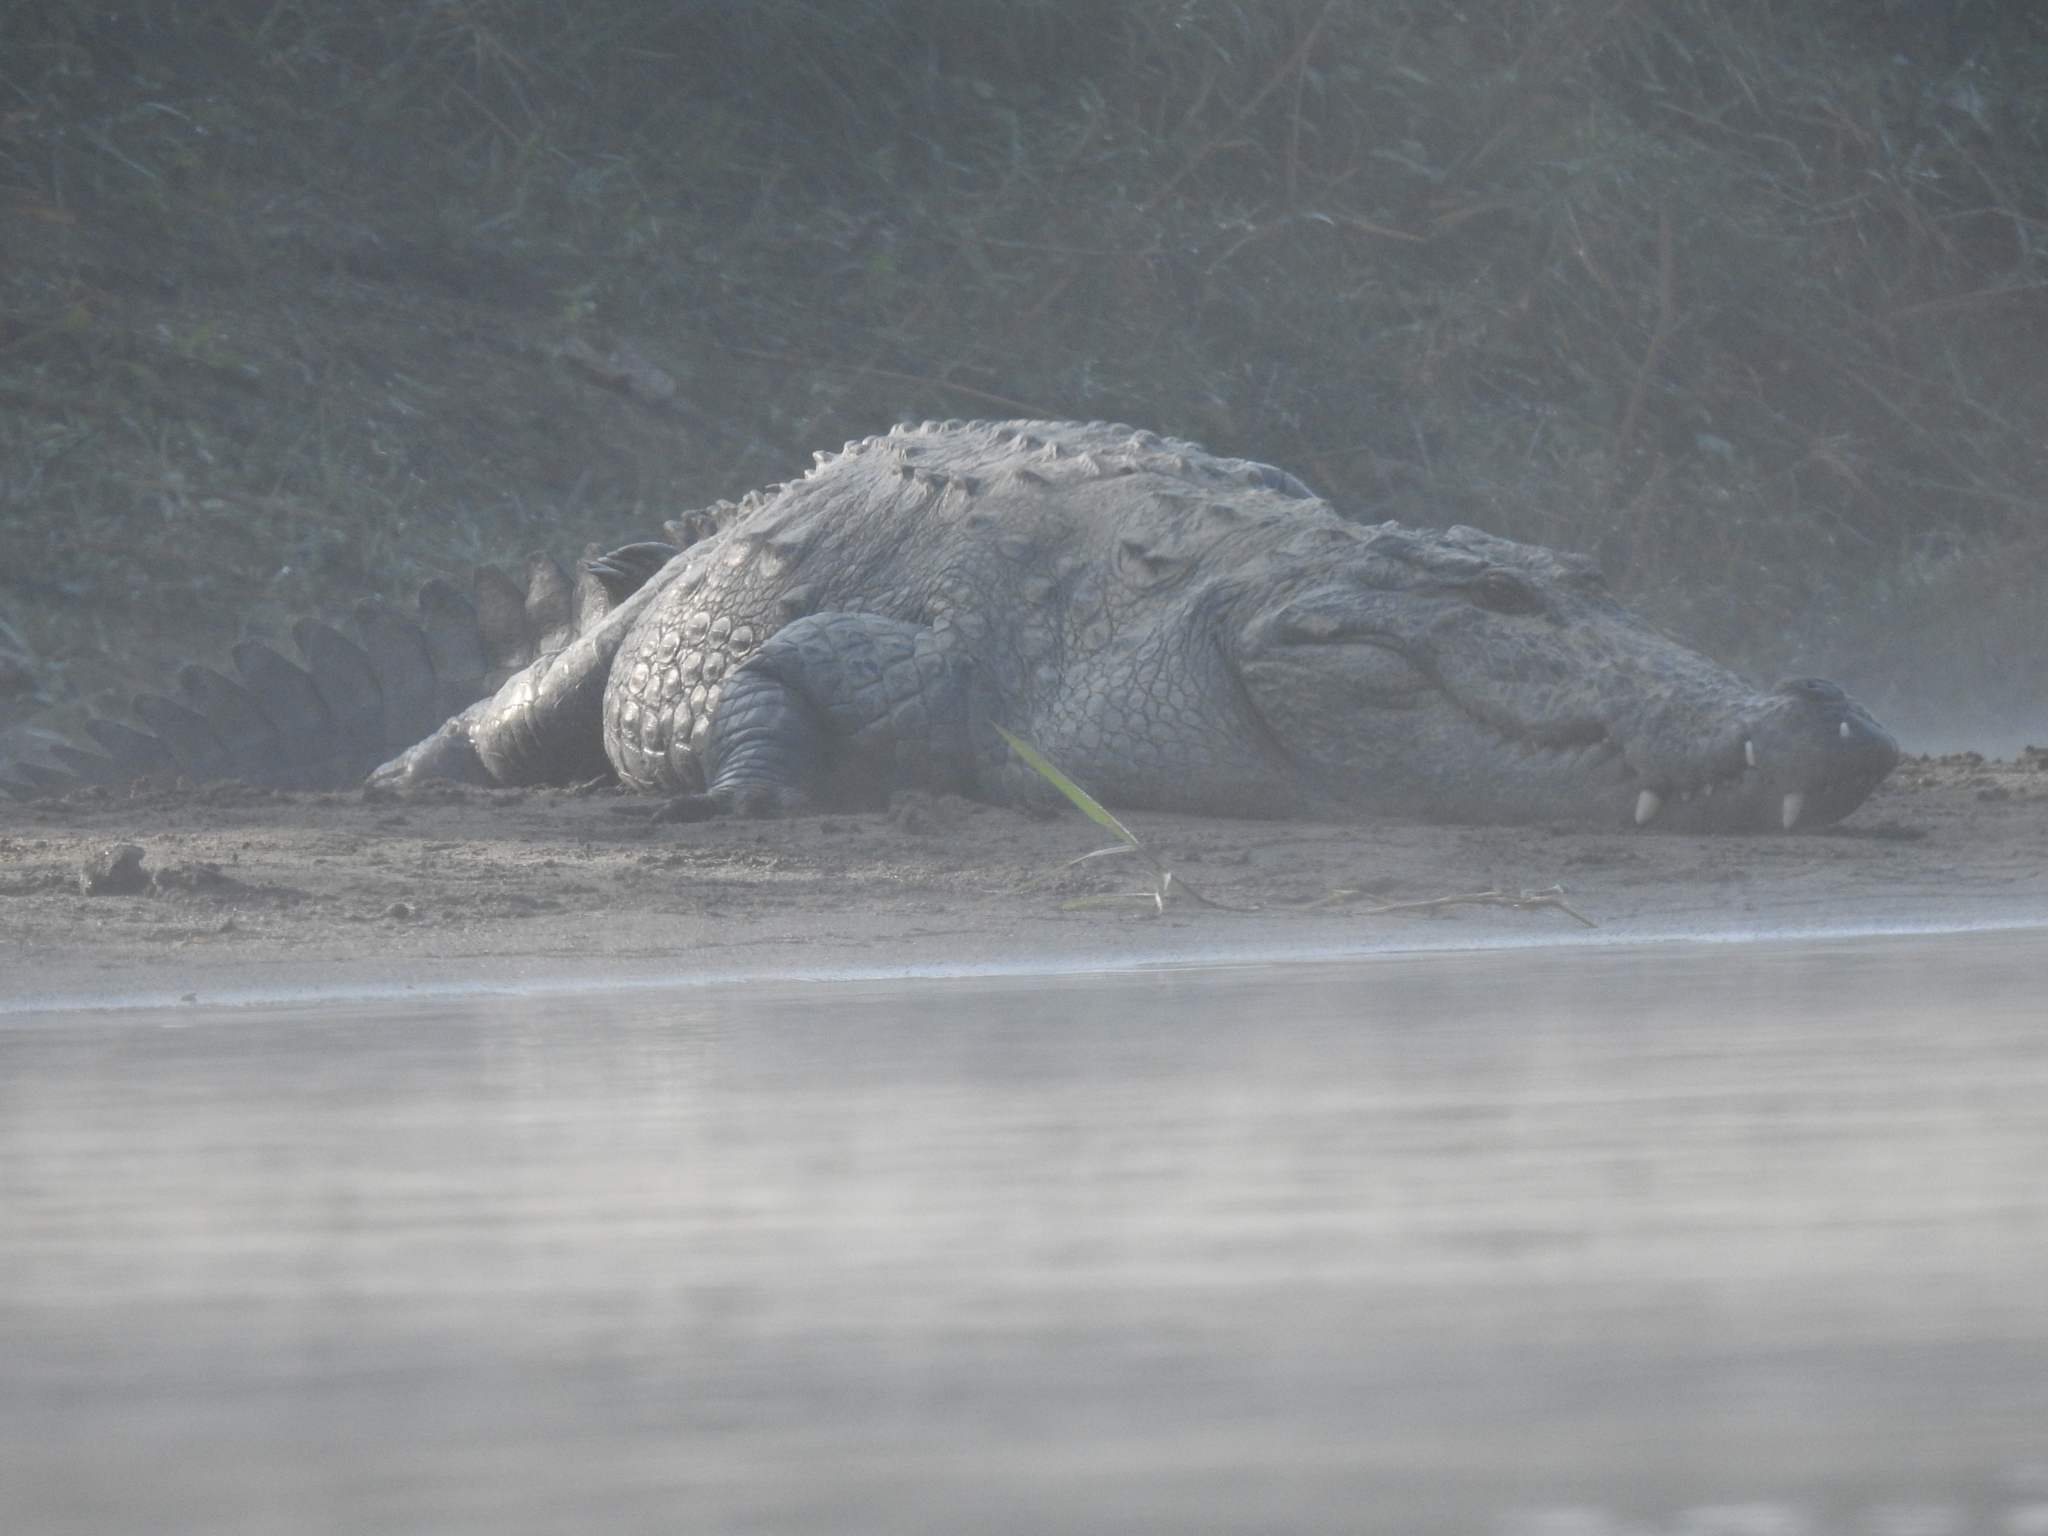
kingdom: Animalia
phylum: Chordata
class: Crocodylia
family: Crocodylidae
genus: Crocodylus
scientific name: Crocodylus palustris
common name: Mugger crocodile
